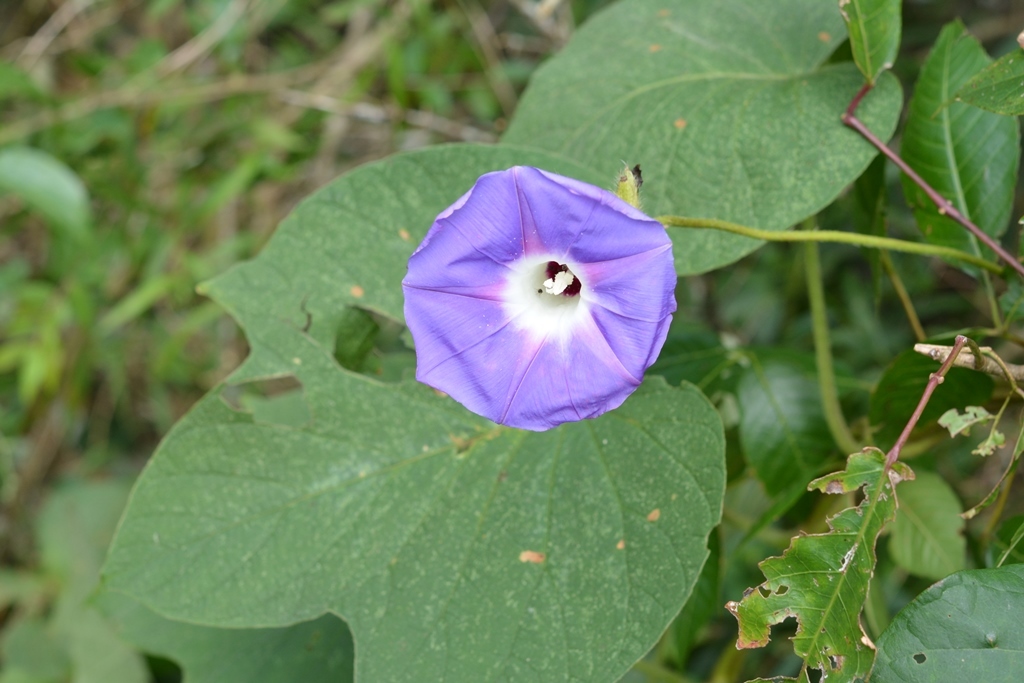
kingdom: Plantae
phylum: Tracheophyta
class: Magnoliopsida
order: Solanales
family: Convolvulaceae
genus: Ipomoea
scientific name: Ipomoea villifera
